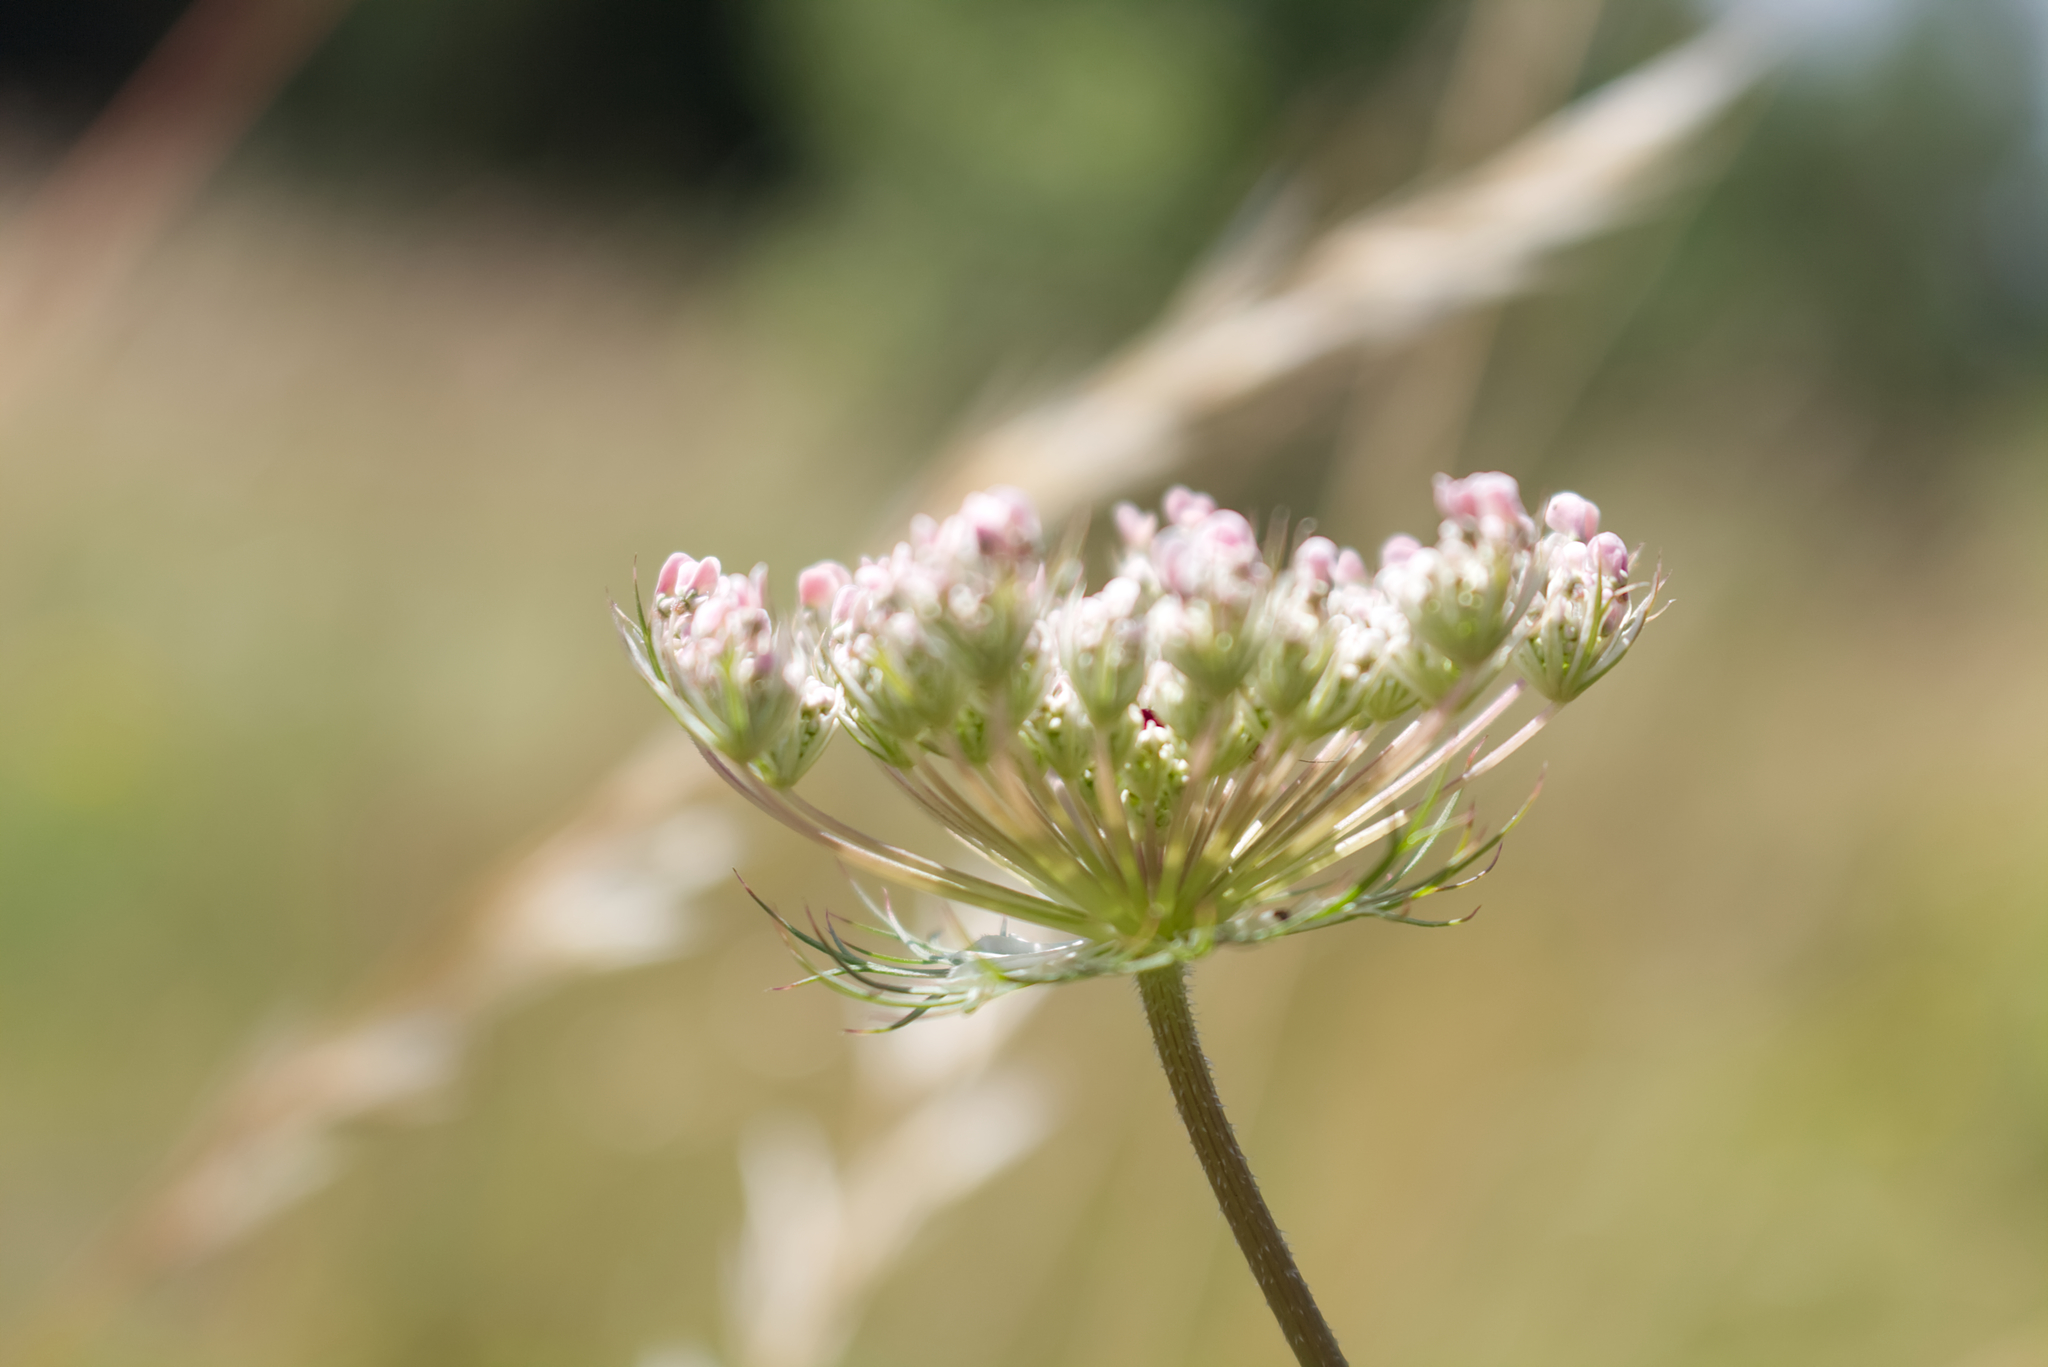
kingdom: Plantae
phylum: Tracheophyta
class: Magnoliopsida
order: Apiales
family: Apiaceae
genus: Daucus
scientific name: Daucus carota
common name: Wild carrot
